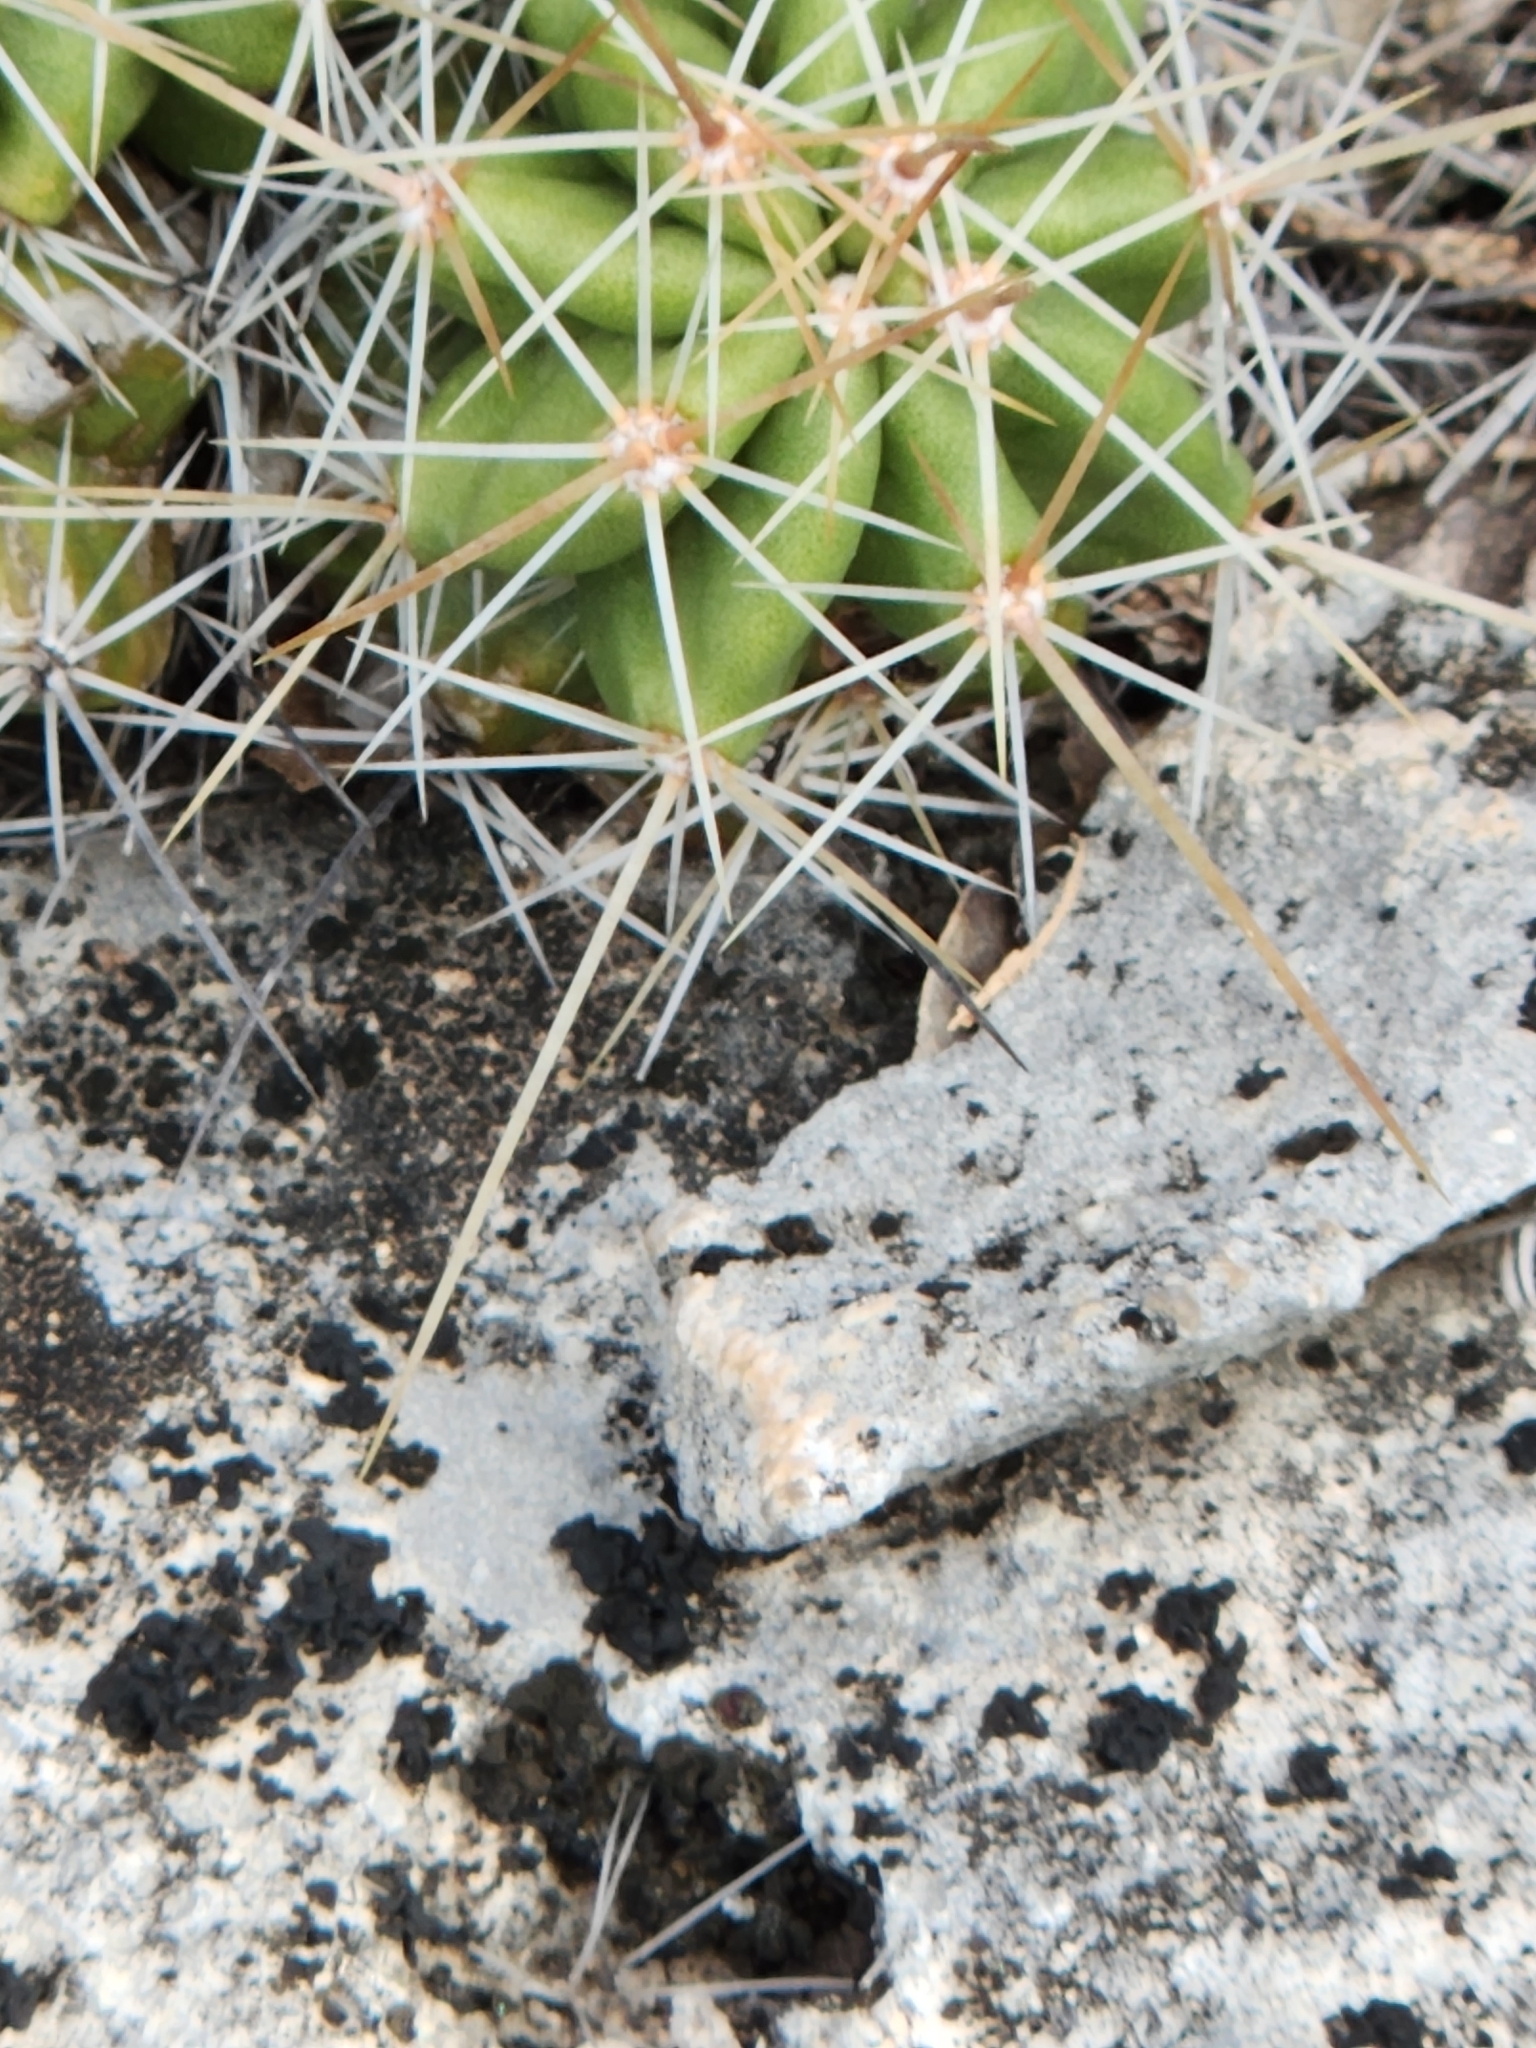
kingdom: Plantae
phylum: Tracheophyta
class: Magnoliopsida
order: Caryophyllales
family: Cactaceae
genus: Echinocereus
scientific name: Echinocereus enneacanthus
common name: Pitaya
